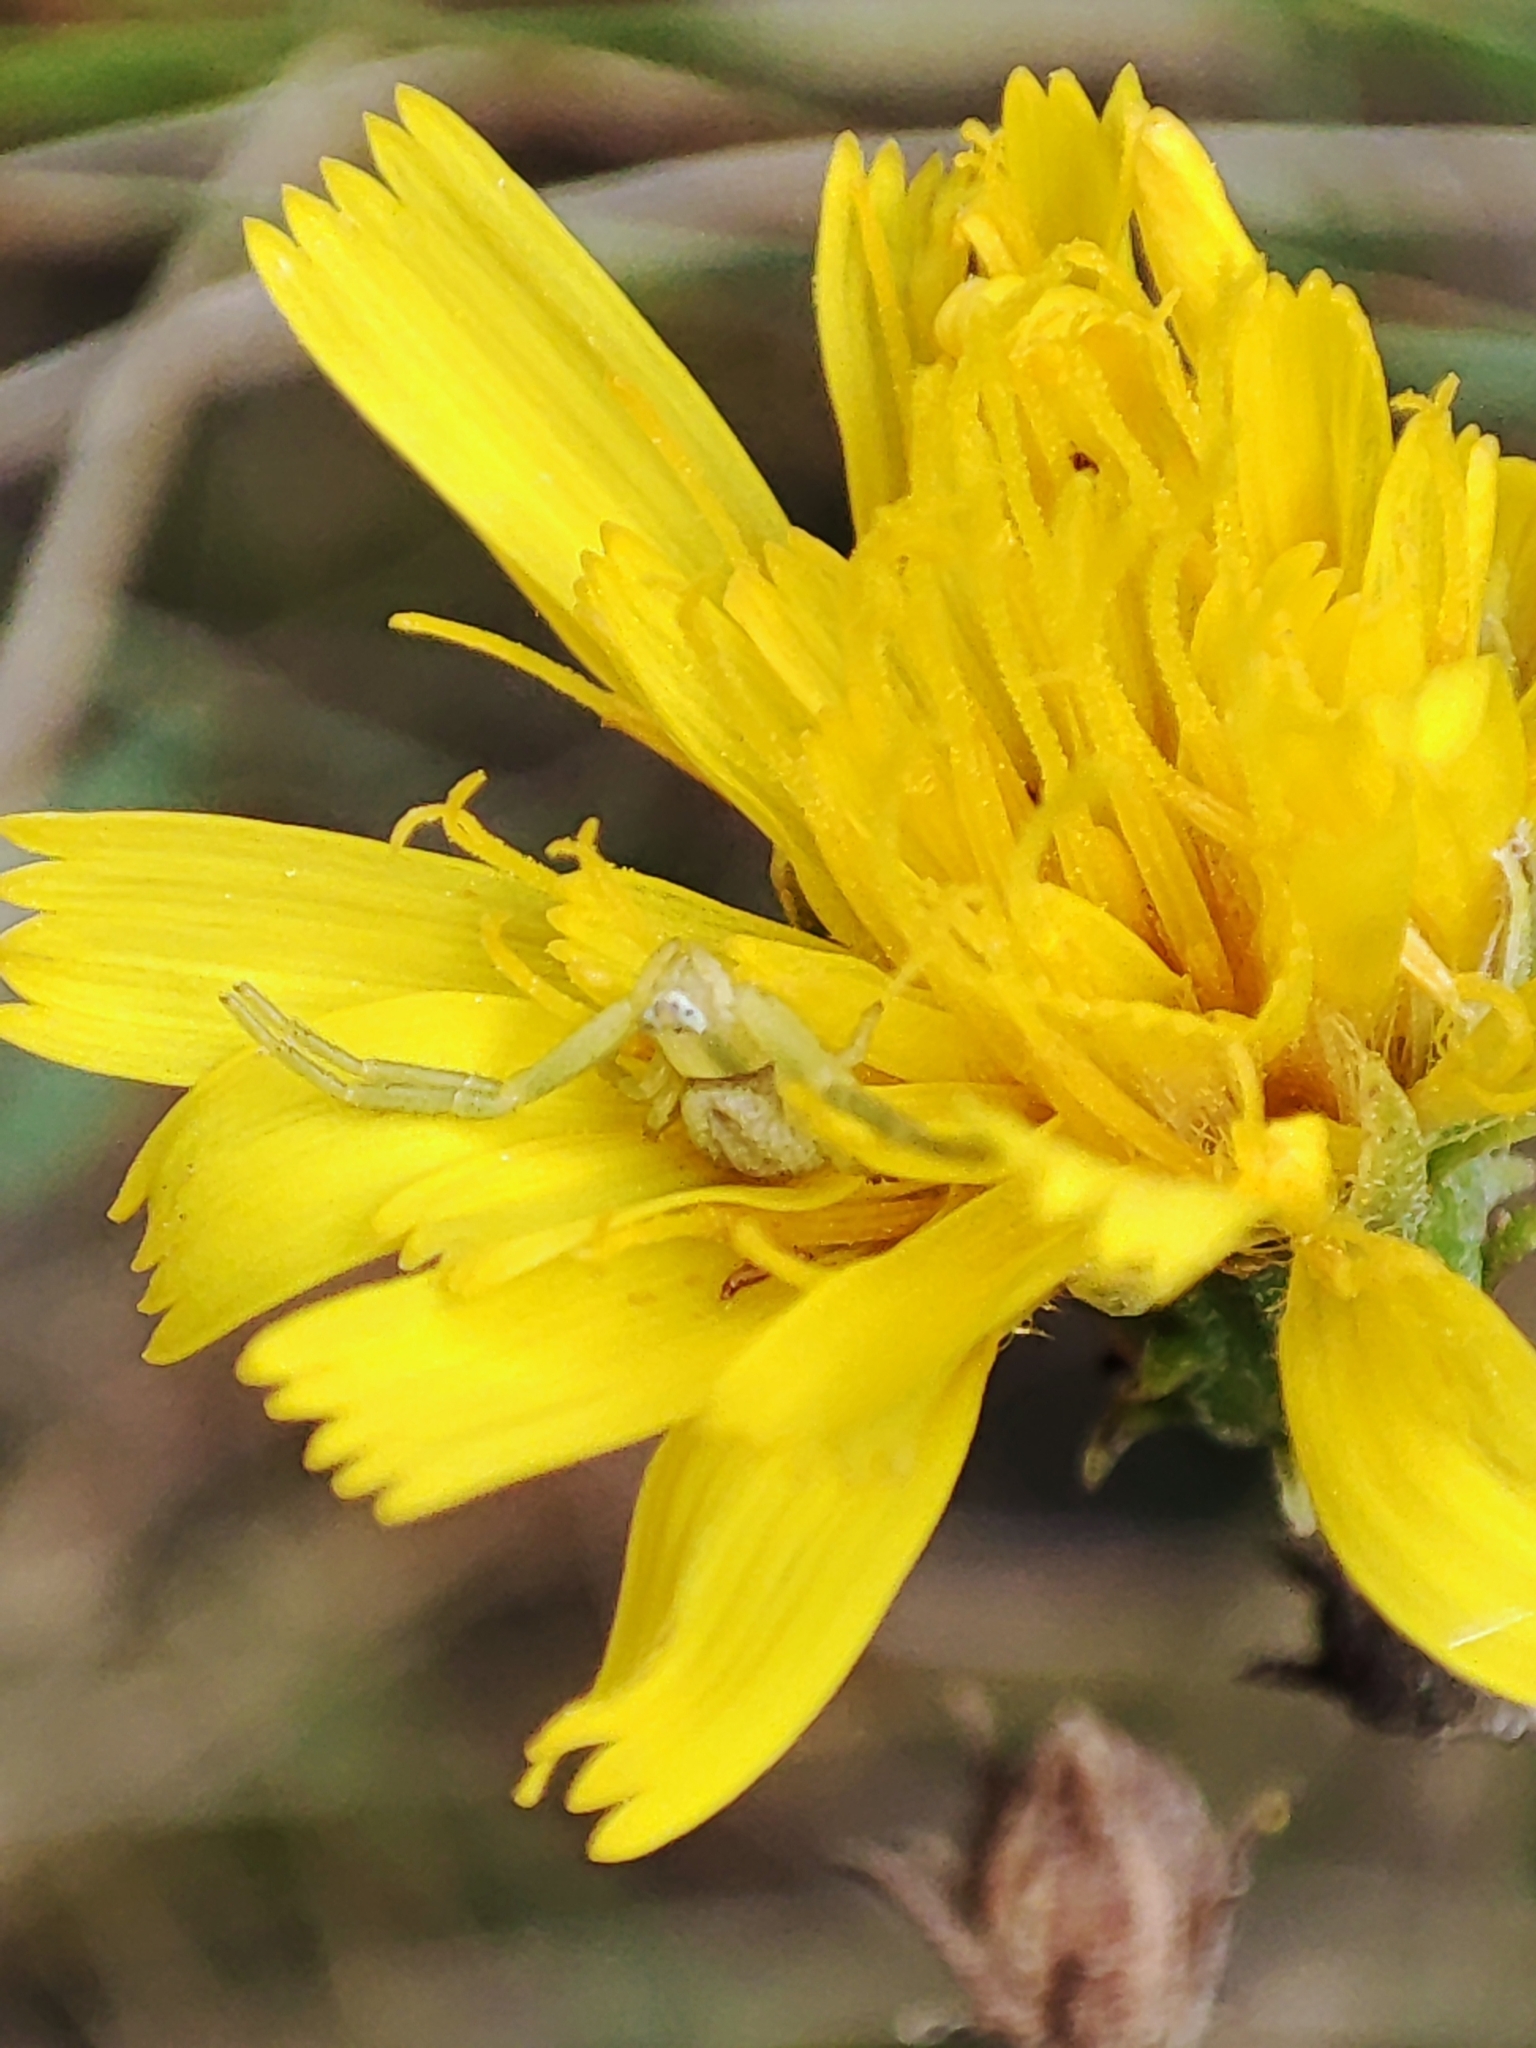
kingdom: Animalia
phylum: Arthropoda
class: Arachnida
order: Araneae
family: Thomisidae
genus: Misumena
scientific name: Misumena vatia
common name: Goldenrod crab spider
